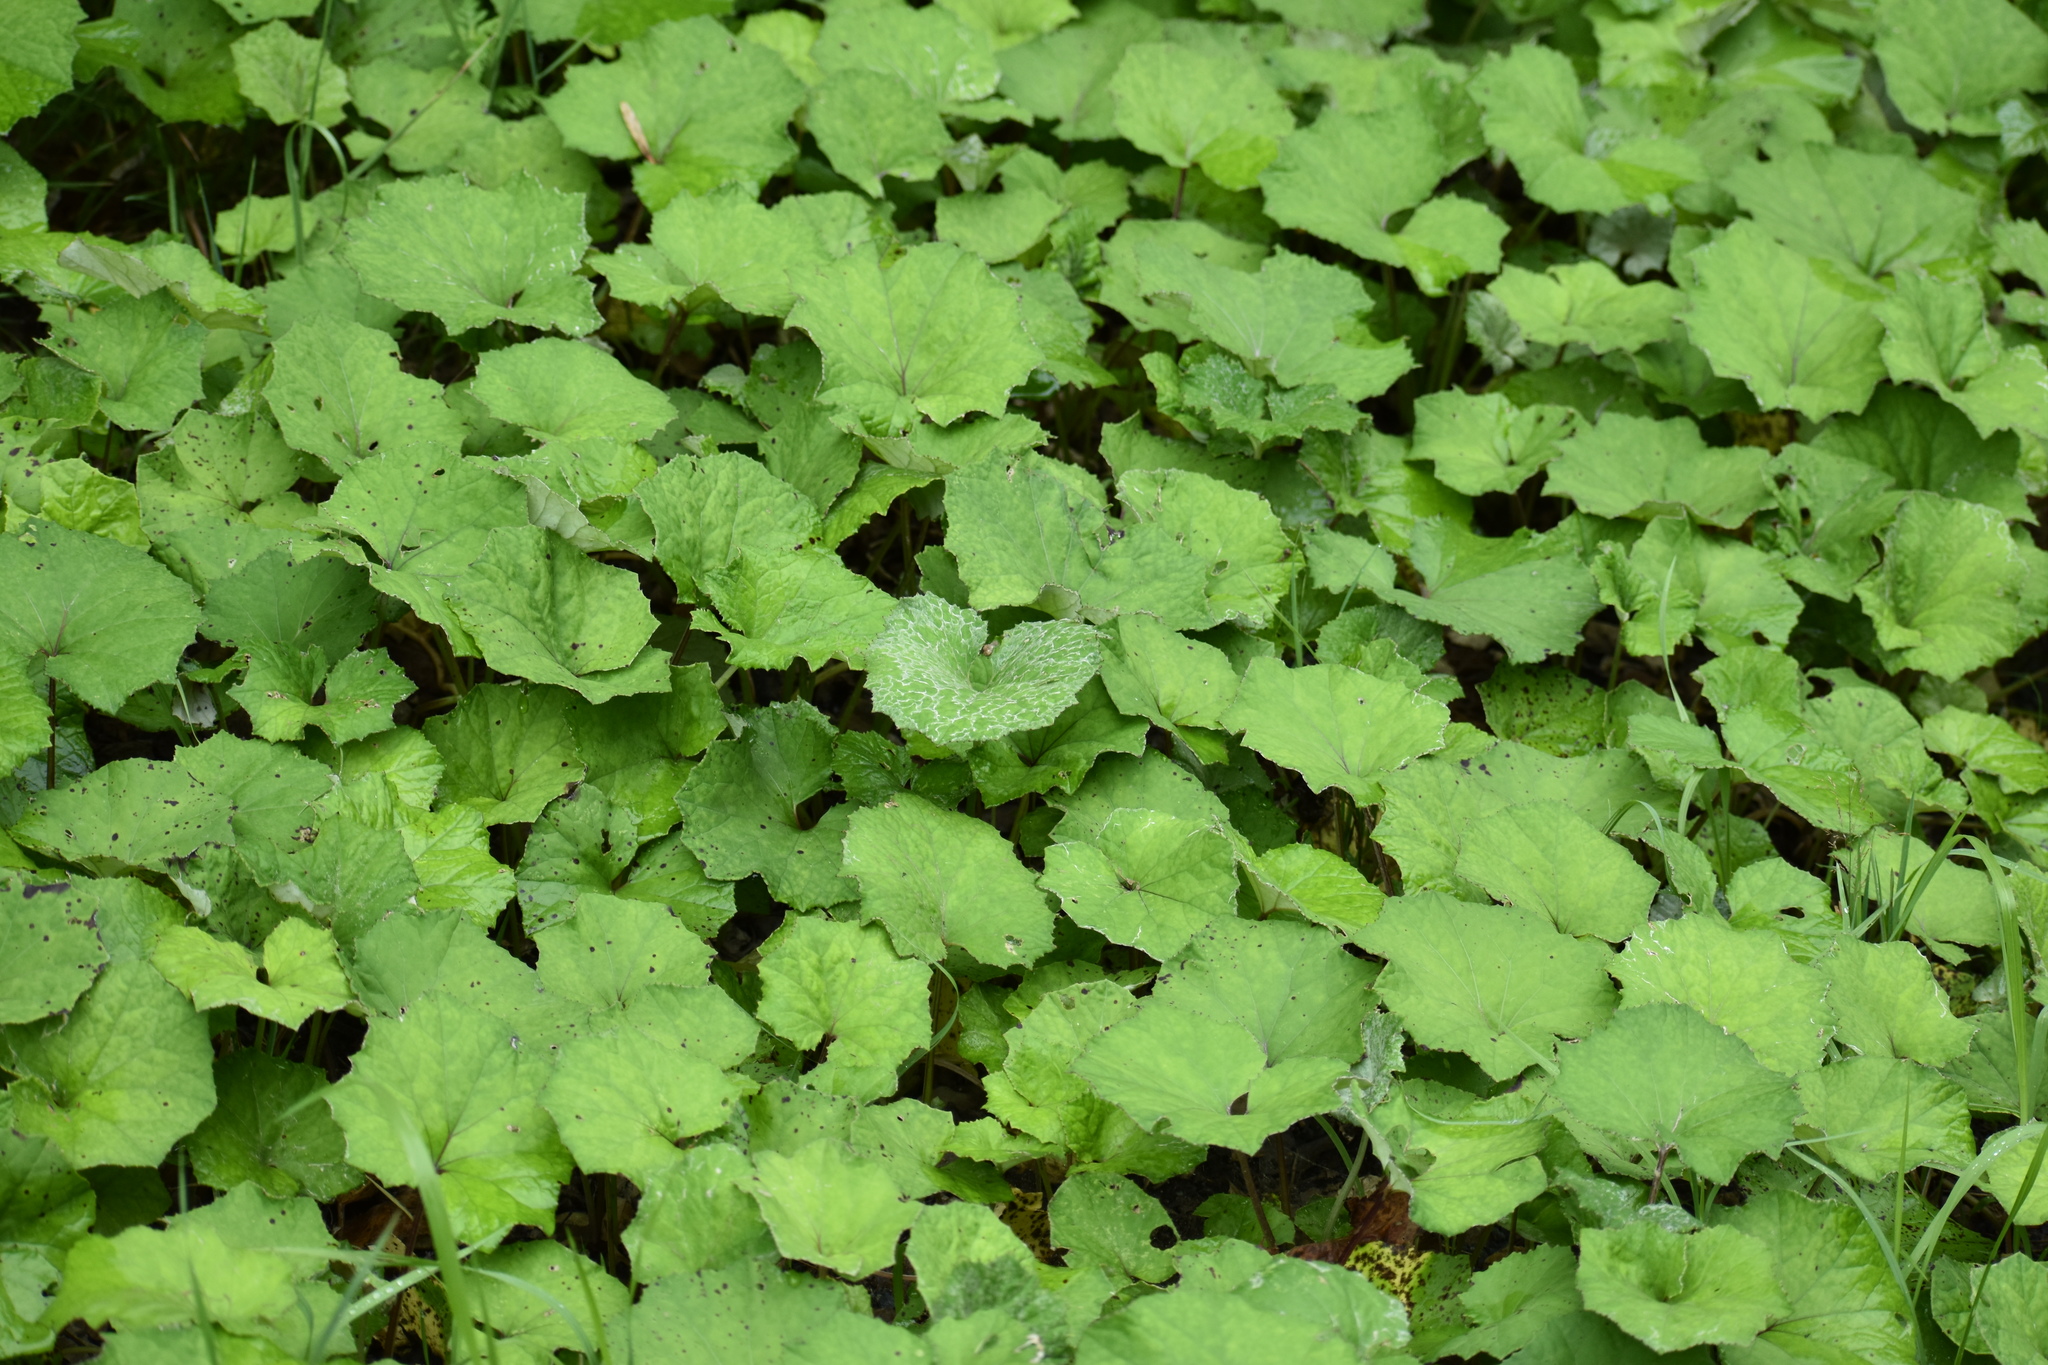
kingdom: Plantae
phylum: Tracheophyta
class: Magnoliopsida
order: Asterales
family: Asteraceae
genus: Tussilago
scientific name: Tussilago farfara
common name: Coltsfoot
